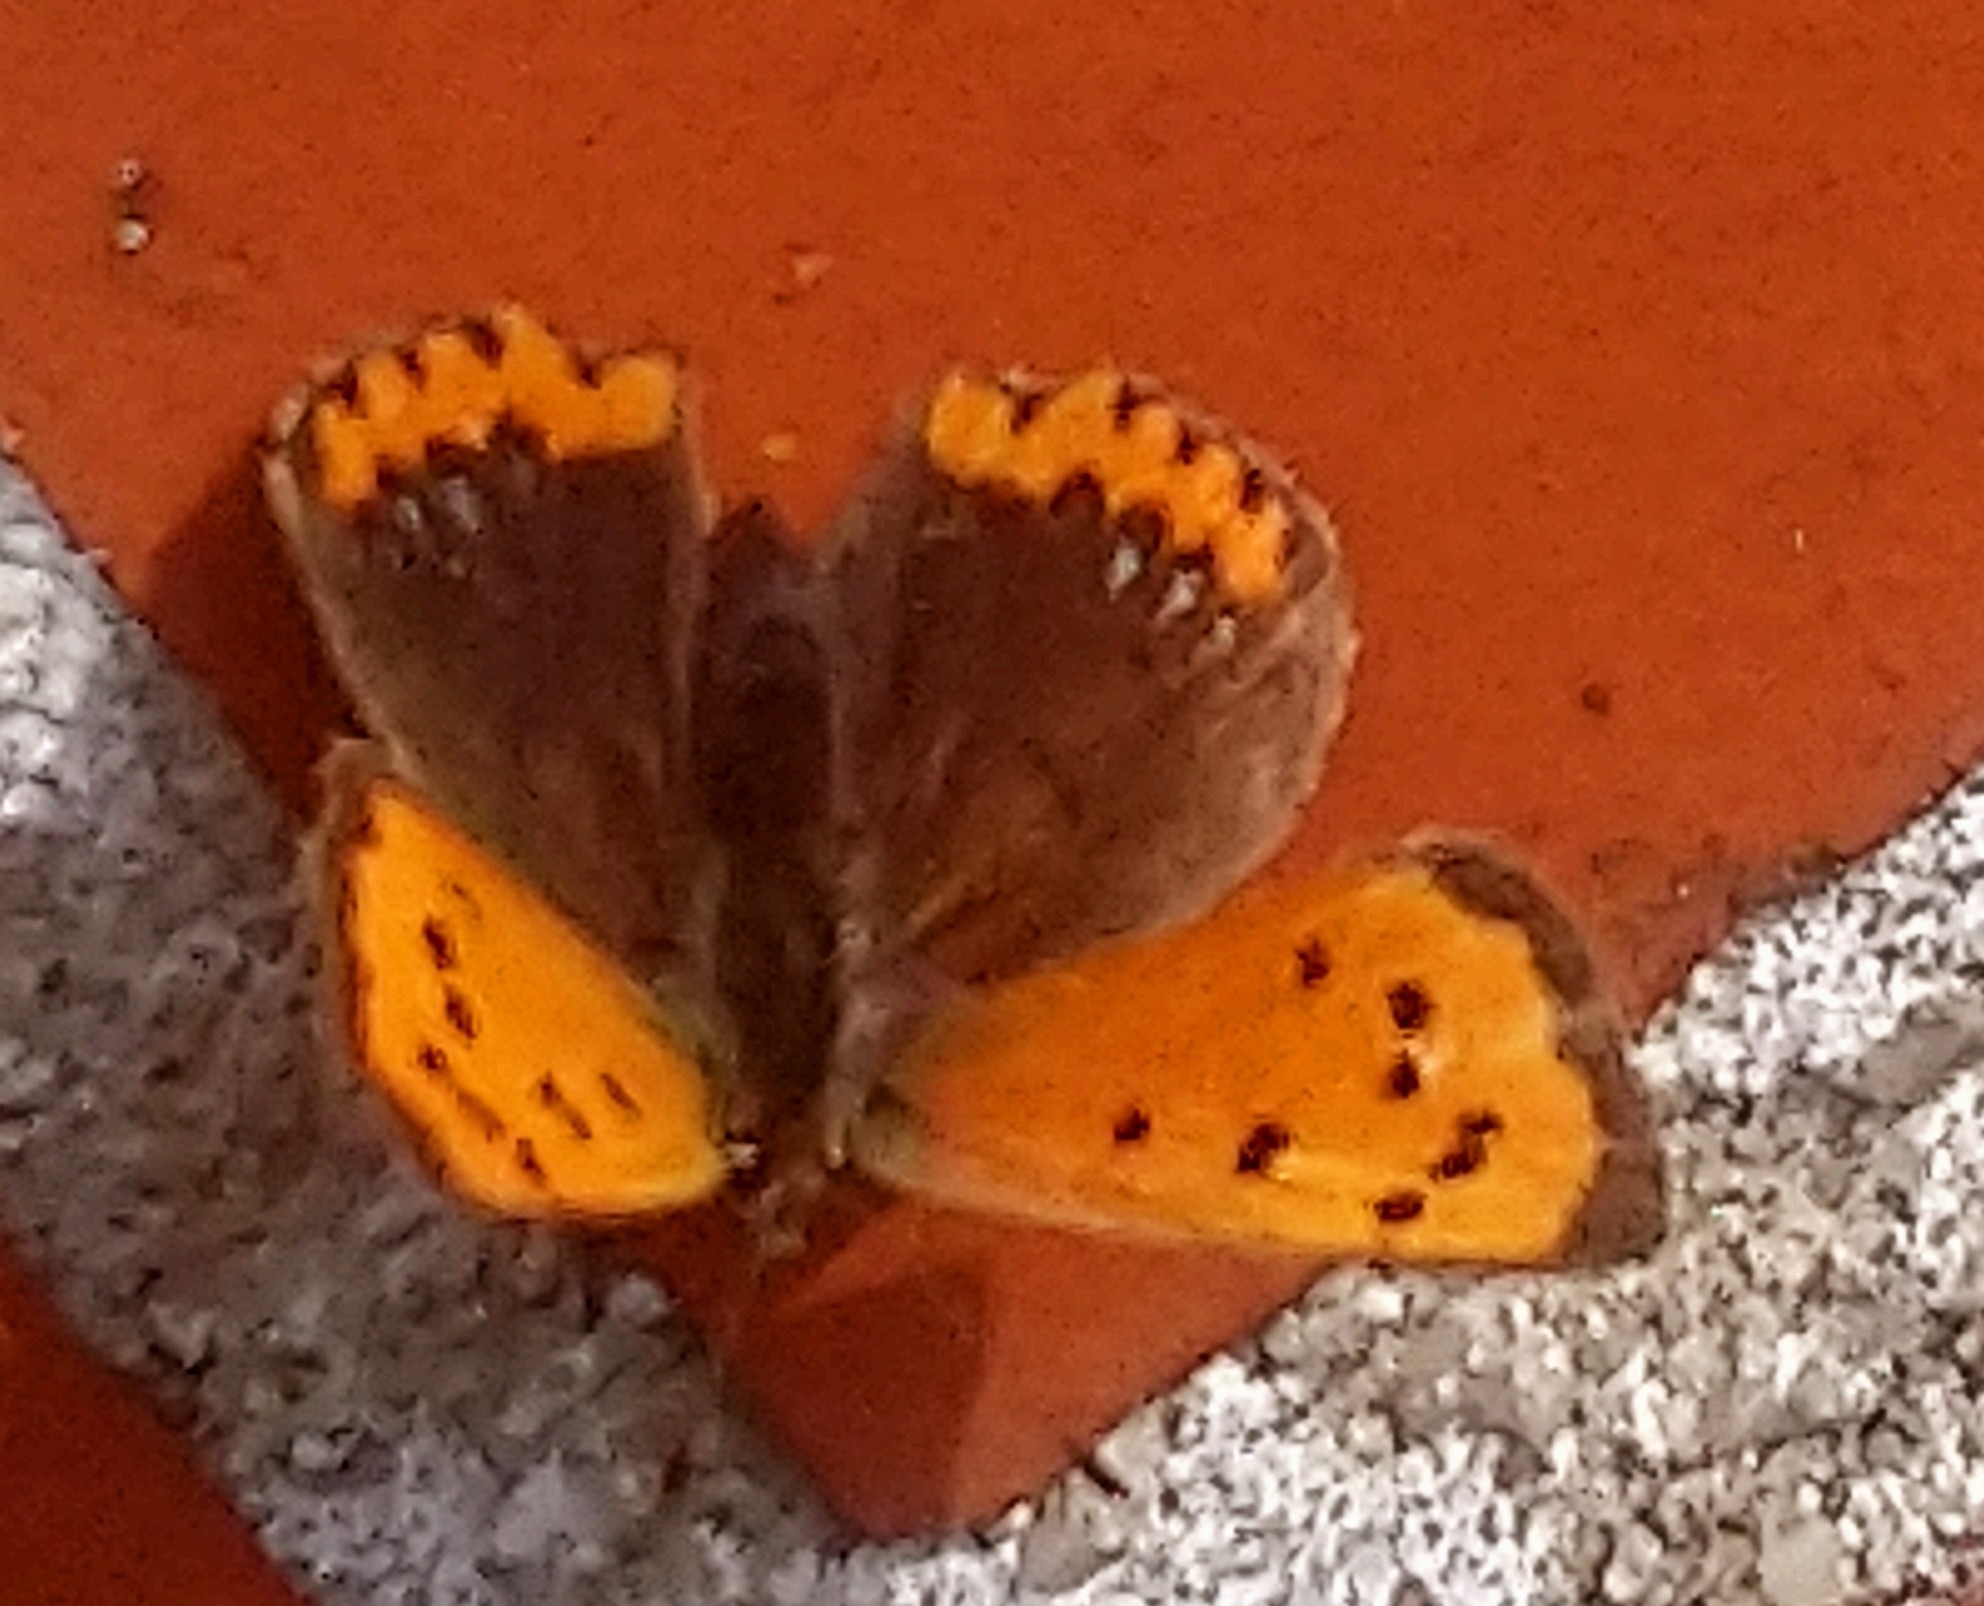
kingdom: Animalia
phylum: Arthropoda
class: Insecta
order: Lepidoptera
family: Lycaenidae
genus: Lycaena
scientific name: Lycaena phlaeas
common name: Small copper
